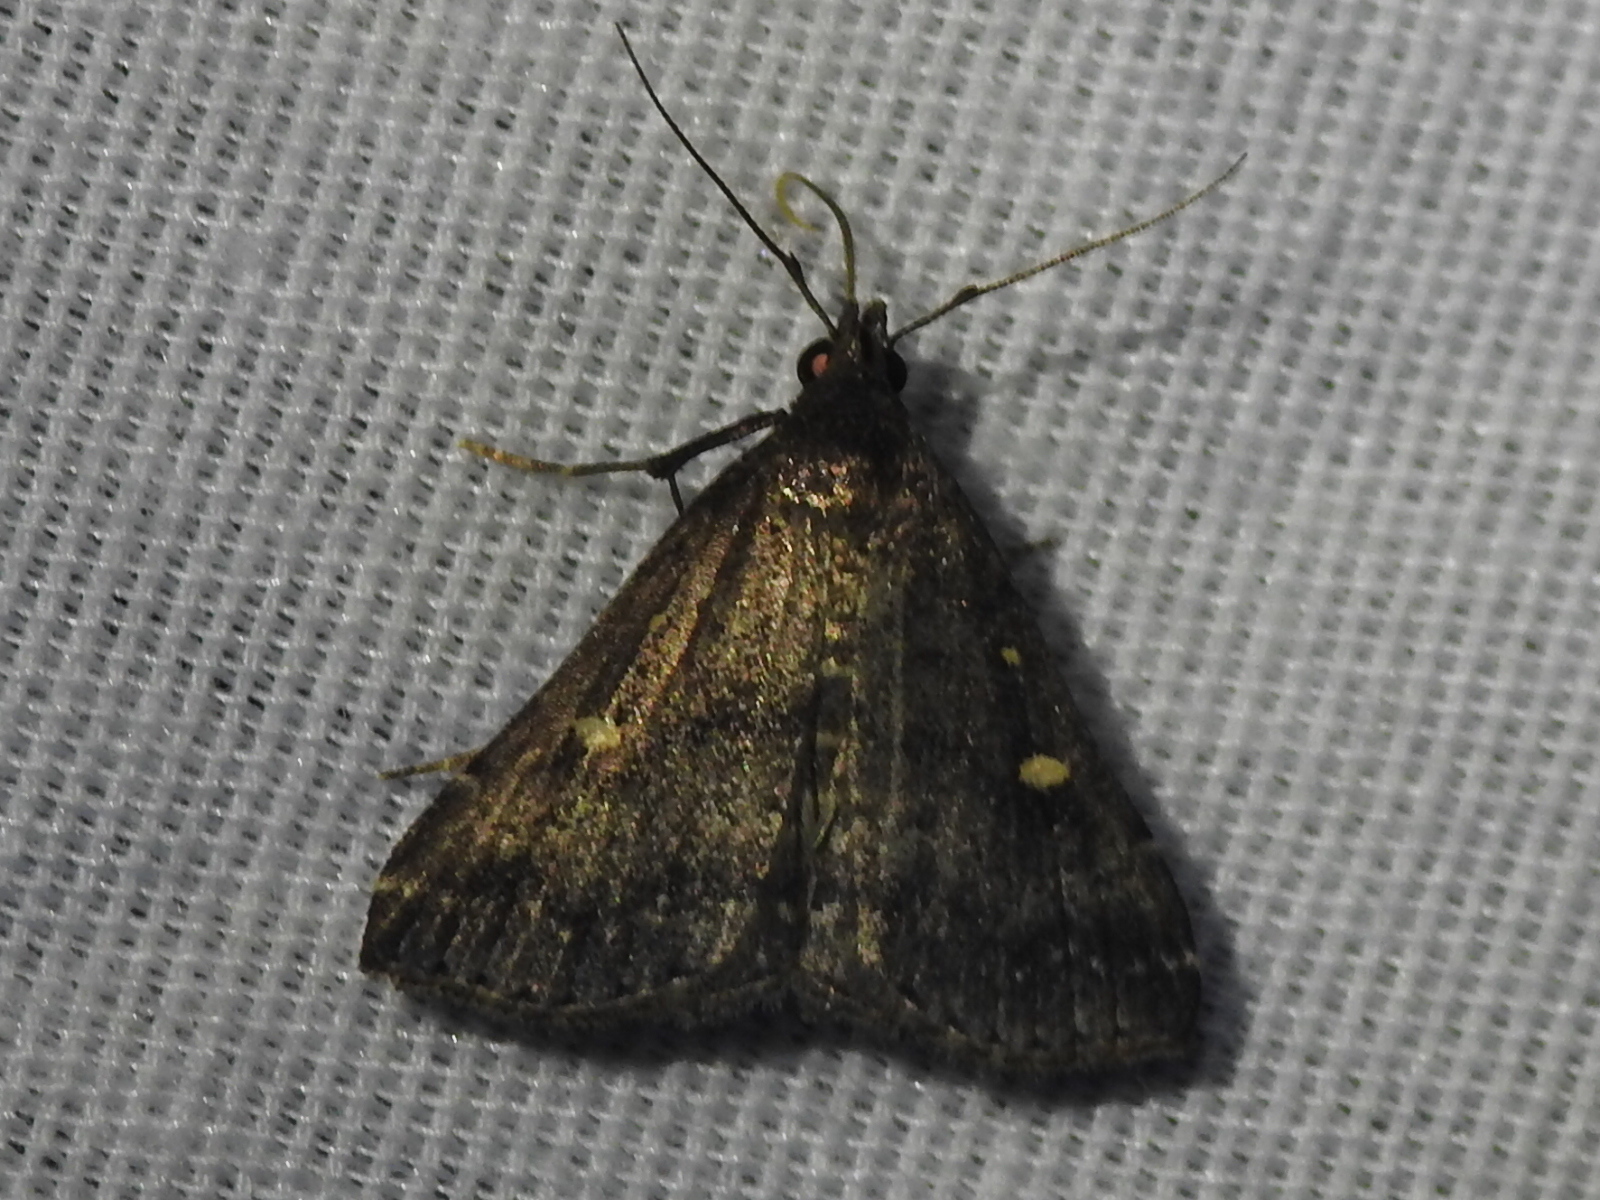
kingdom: Animalia
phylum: Arthropoda
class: Insecta
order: Lepidoptera
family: Erebidae
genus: Tetanolita
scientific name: Tetanolita mynesalis
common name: Smoky tetanolita moth
